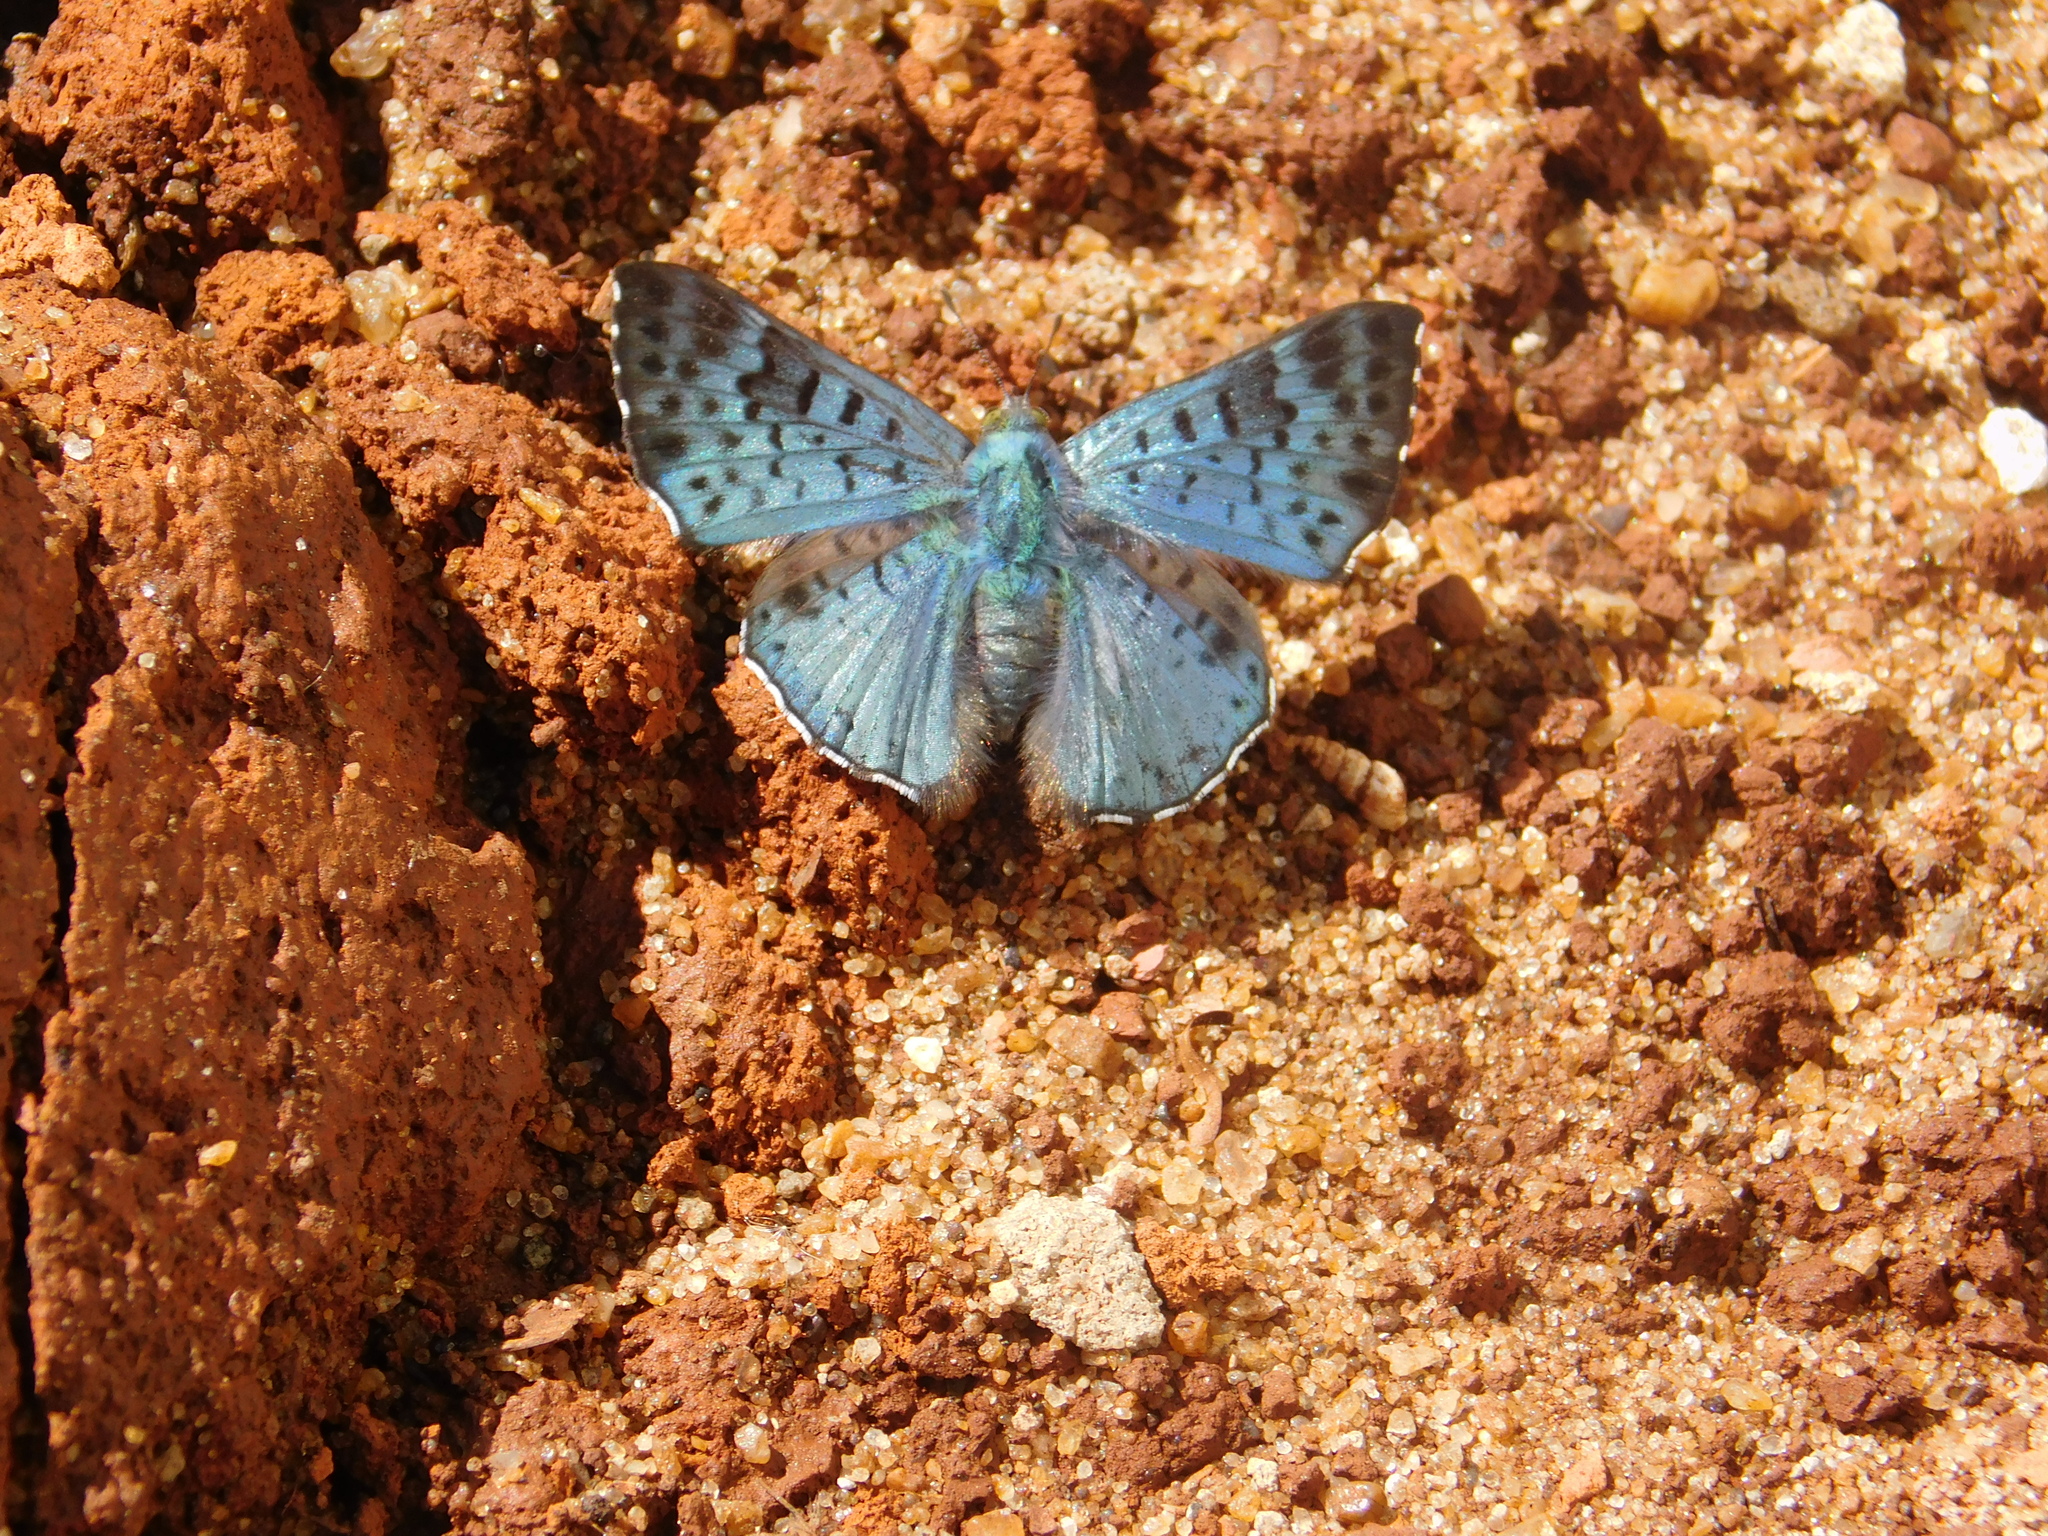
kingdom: Animalia
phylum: Arthropoda
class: Insecta
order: Lepidoptera
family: Riodinidae
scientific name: Riodinidae
